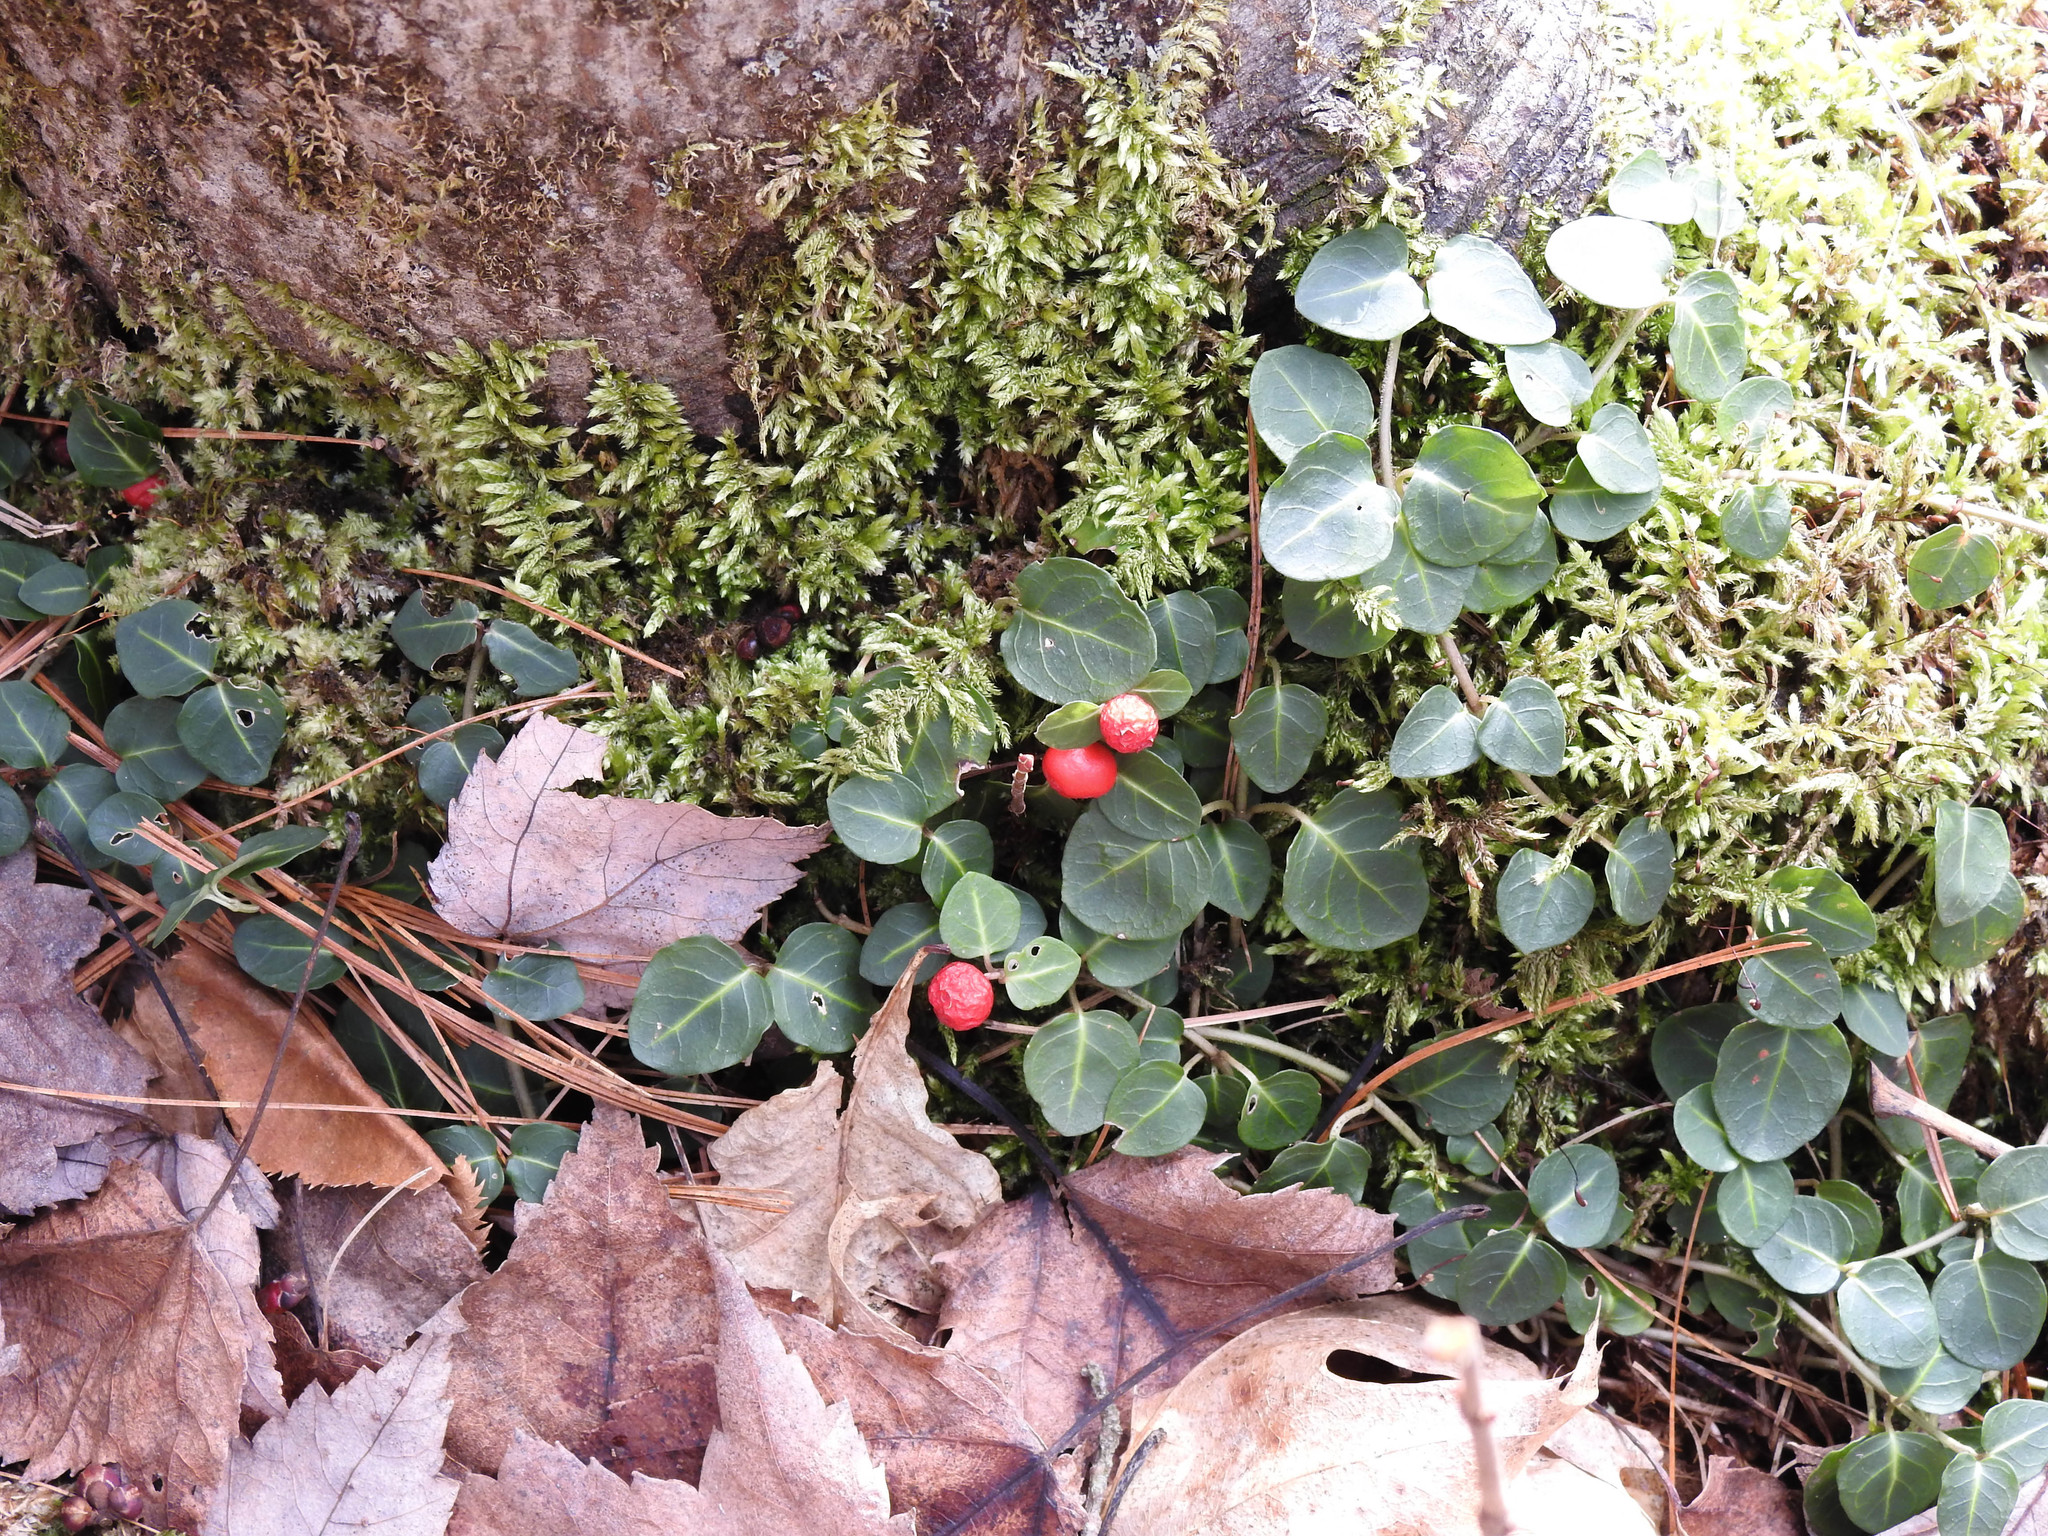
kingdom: Plantae
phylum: Tracheophyta
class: Magnoliopsida
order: Gentianales
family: Rubiaceae
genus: Mitchella
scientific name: Mitchella repens
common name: Partridge-berry
